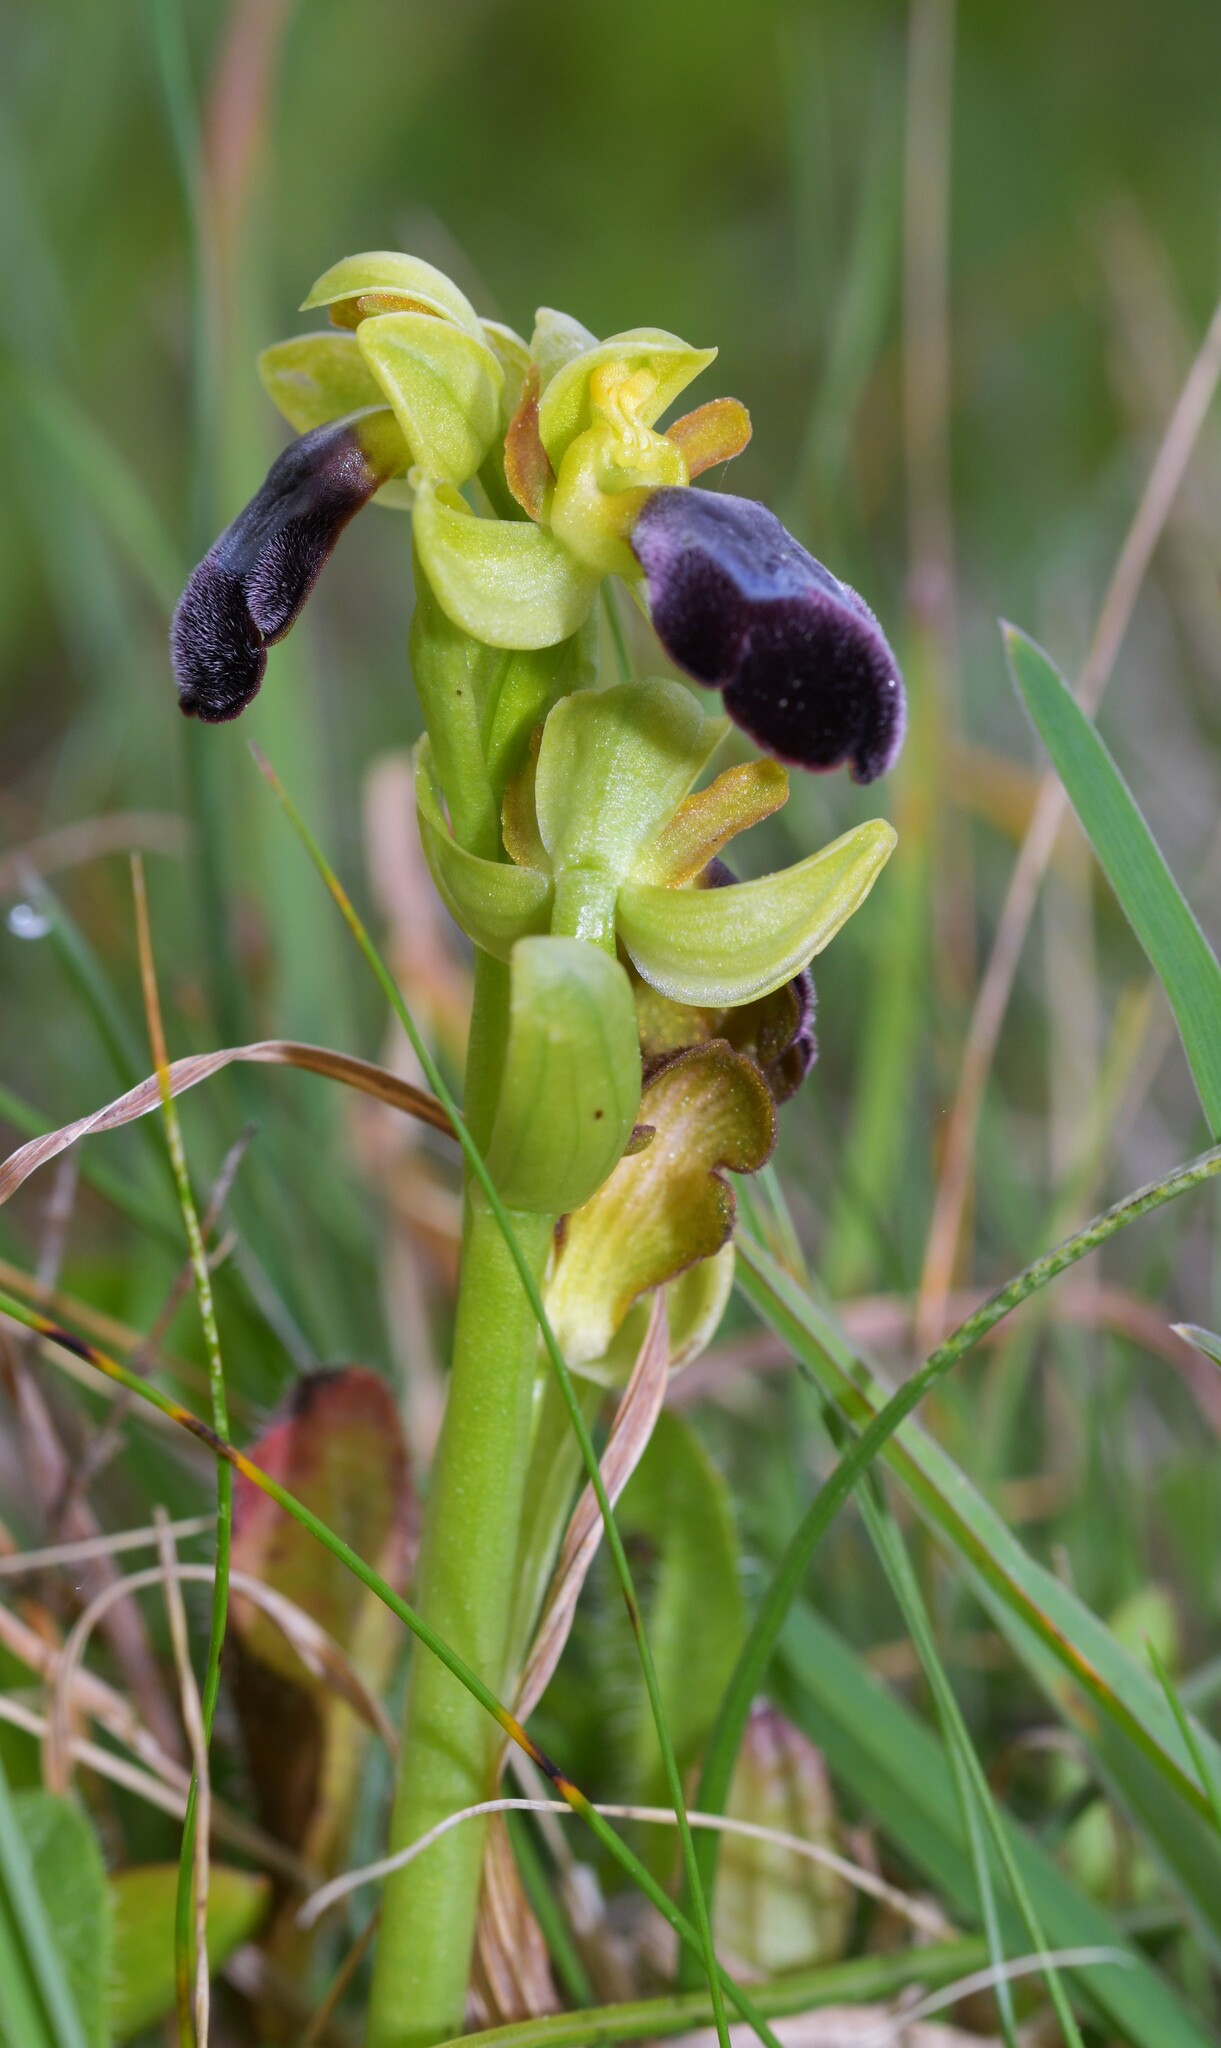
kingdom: Plantae
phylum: Tracheophyta
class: Liliopsida
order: Asparagales
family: Orchidaceae
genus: Ophrys
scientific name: Ophrys fusca
